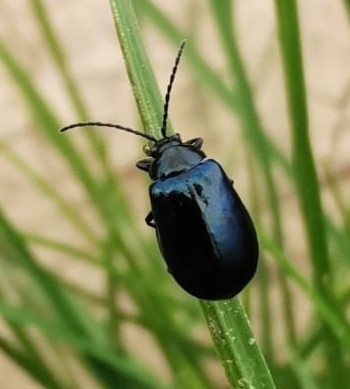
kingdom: Animalia
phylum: Arthropoda
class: Insecta
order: Coleoptera
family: Chrysomelidae
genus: Agelastica
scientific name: Agelastica alni
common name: Alder leaf beetle
